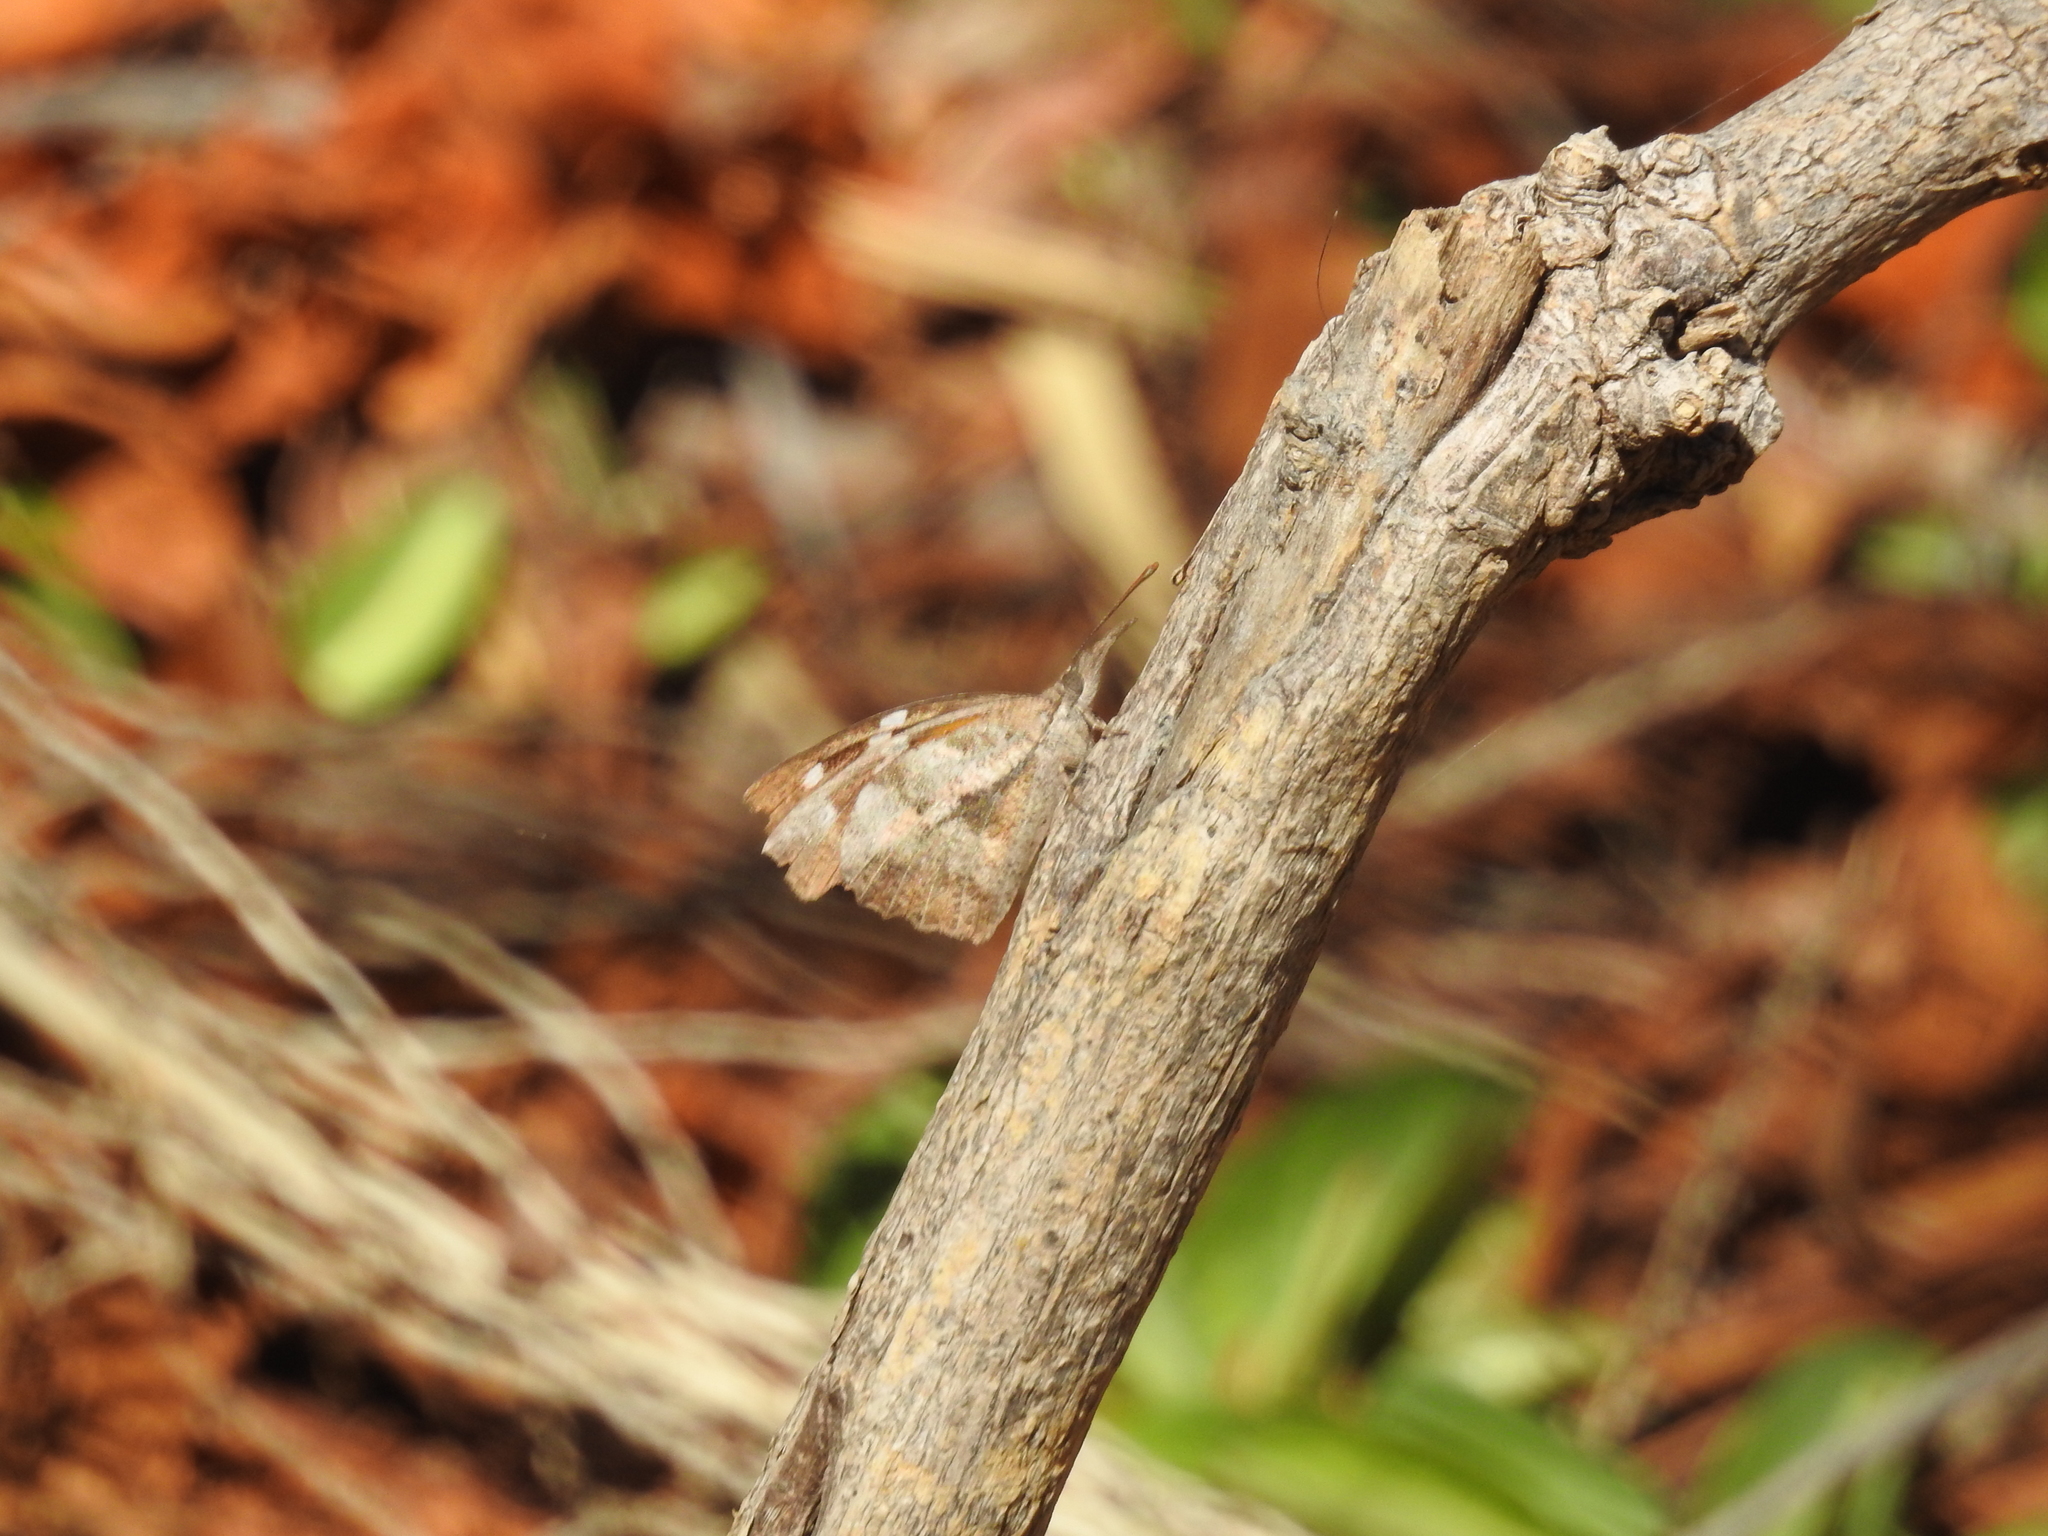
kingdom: Animalia
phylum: Arthropoda
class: Insecta
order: Lepidoptera
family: Nymphalidae
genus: Libytheana
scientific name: Libytheana carinenta
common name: American snout
